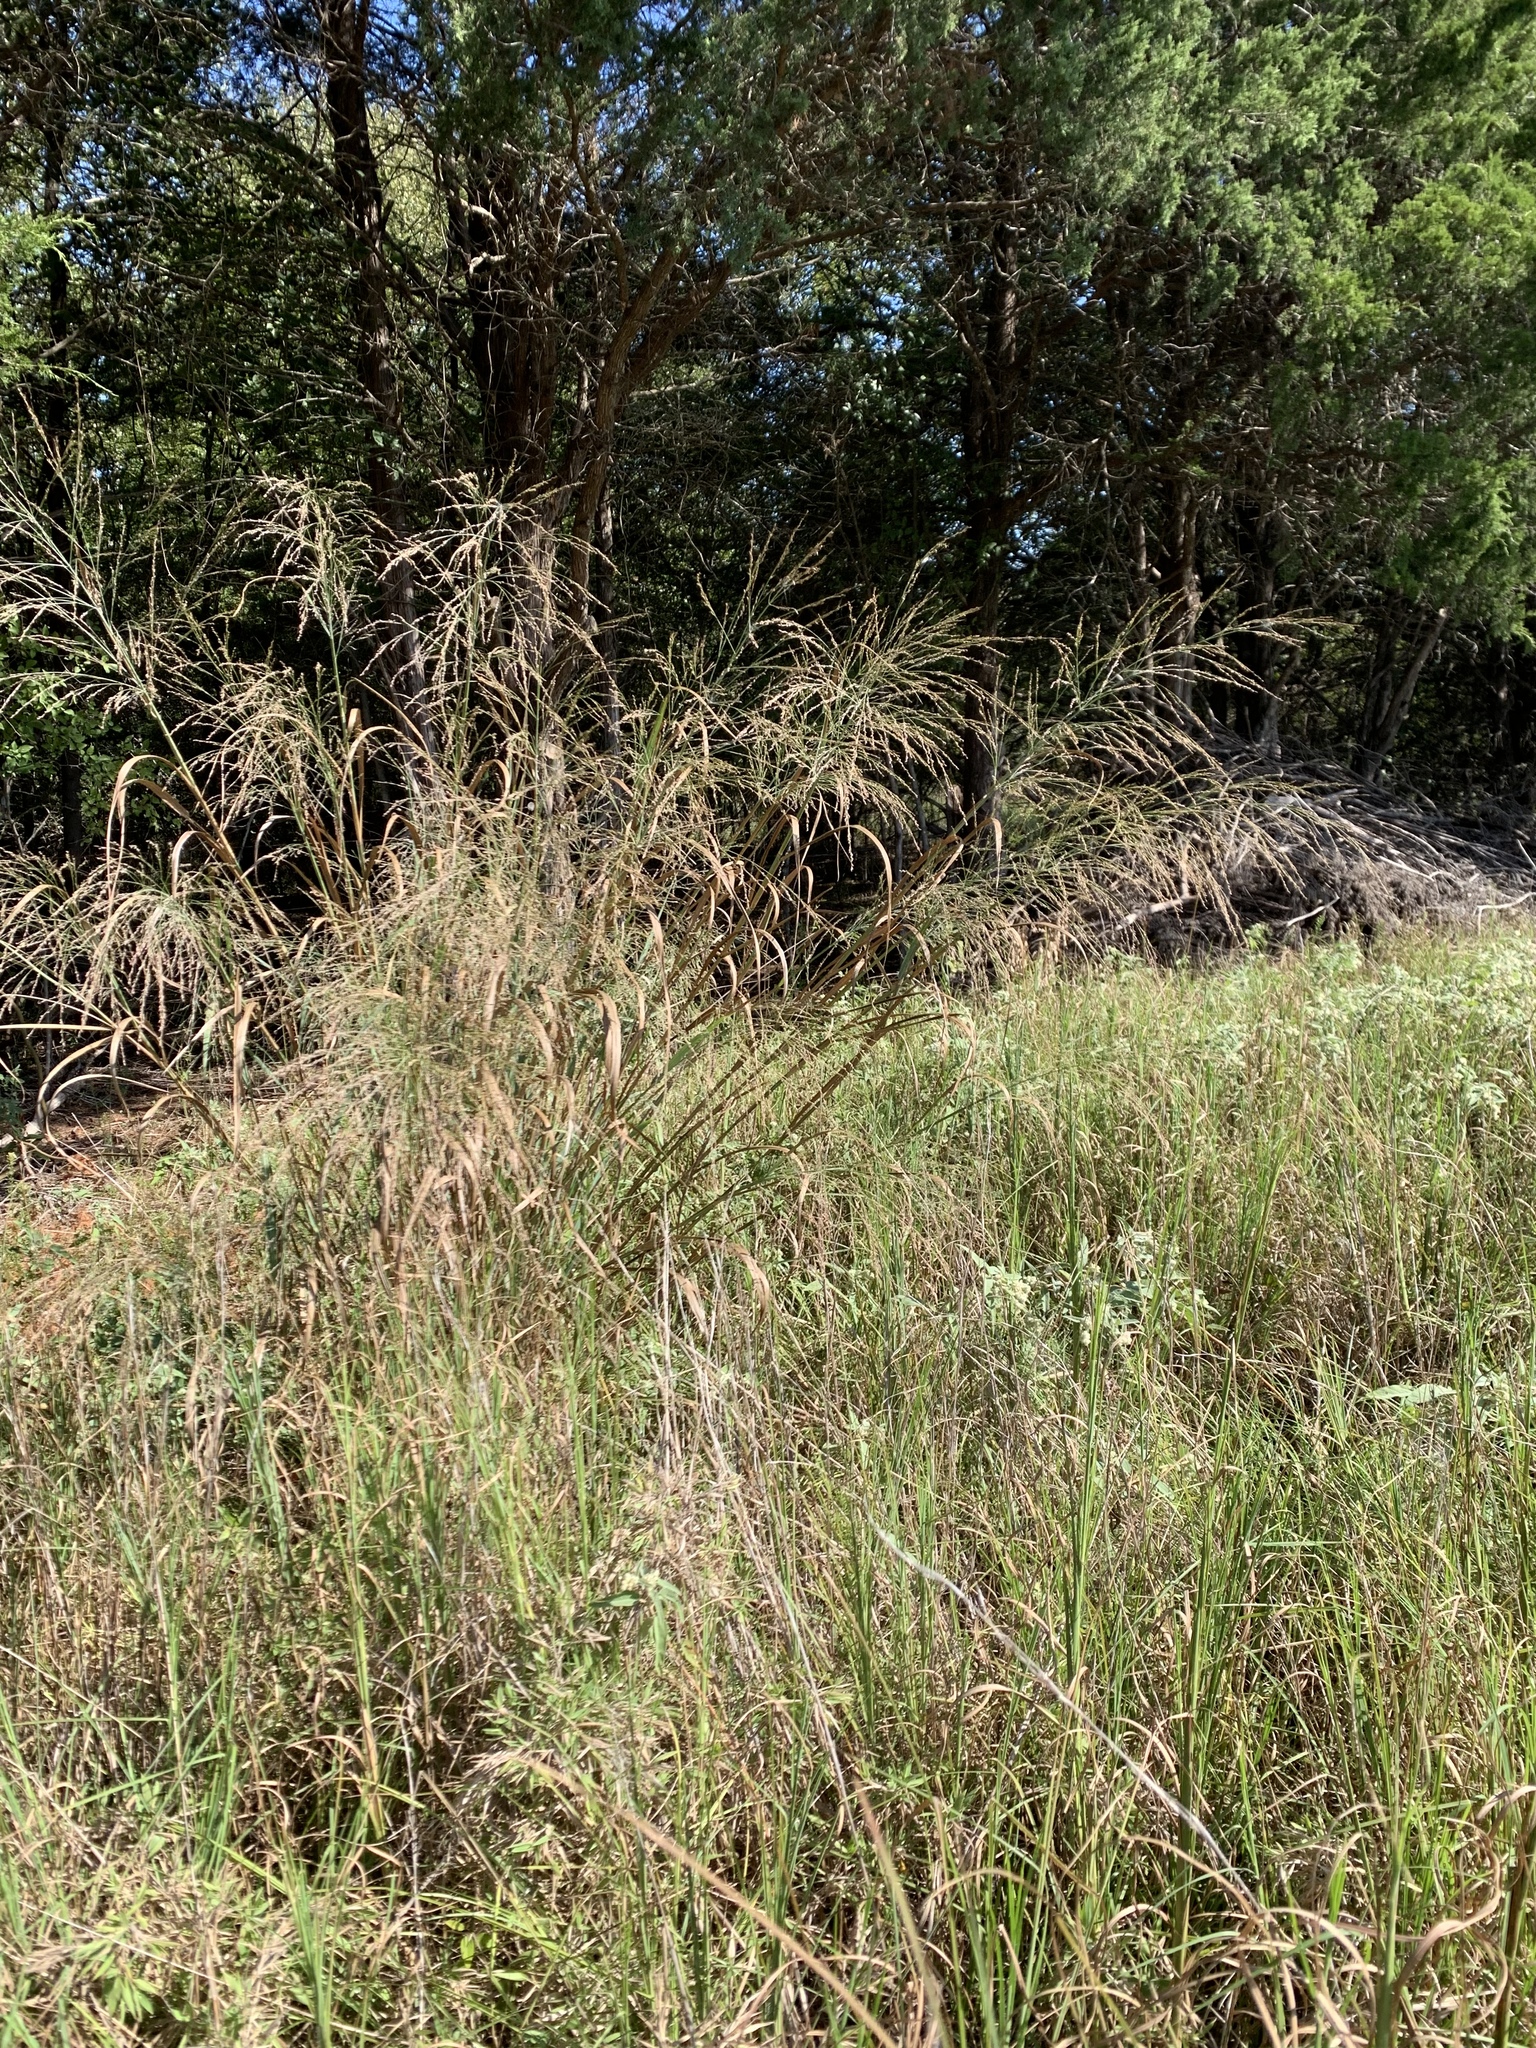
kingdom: Plantae
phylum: Tracheophyta
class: Liliopsida
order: Poales
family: Poaceae
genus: Panicum
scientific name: Panicum virgatum
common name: Switchgrass
